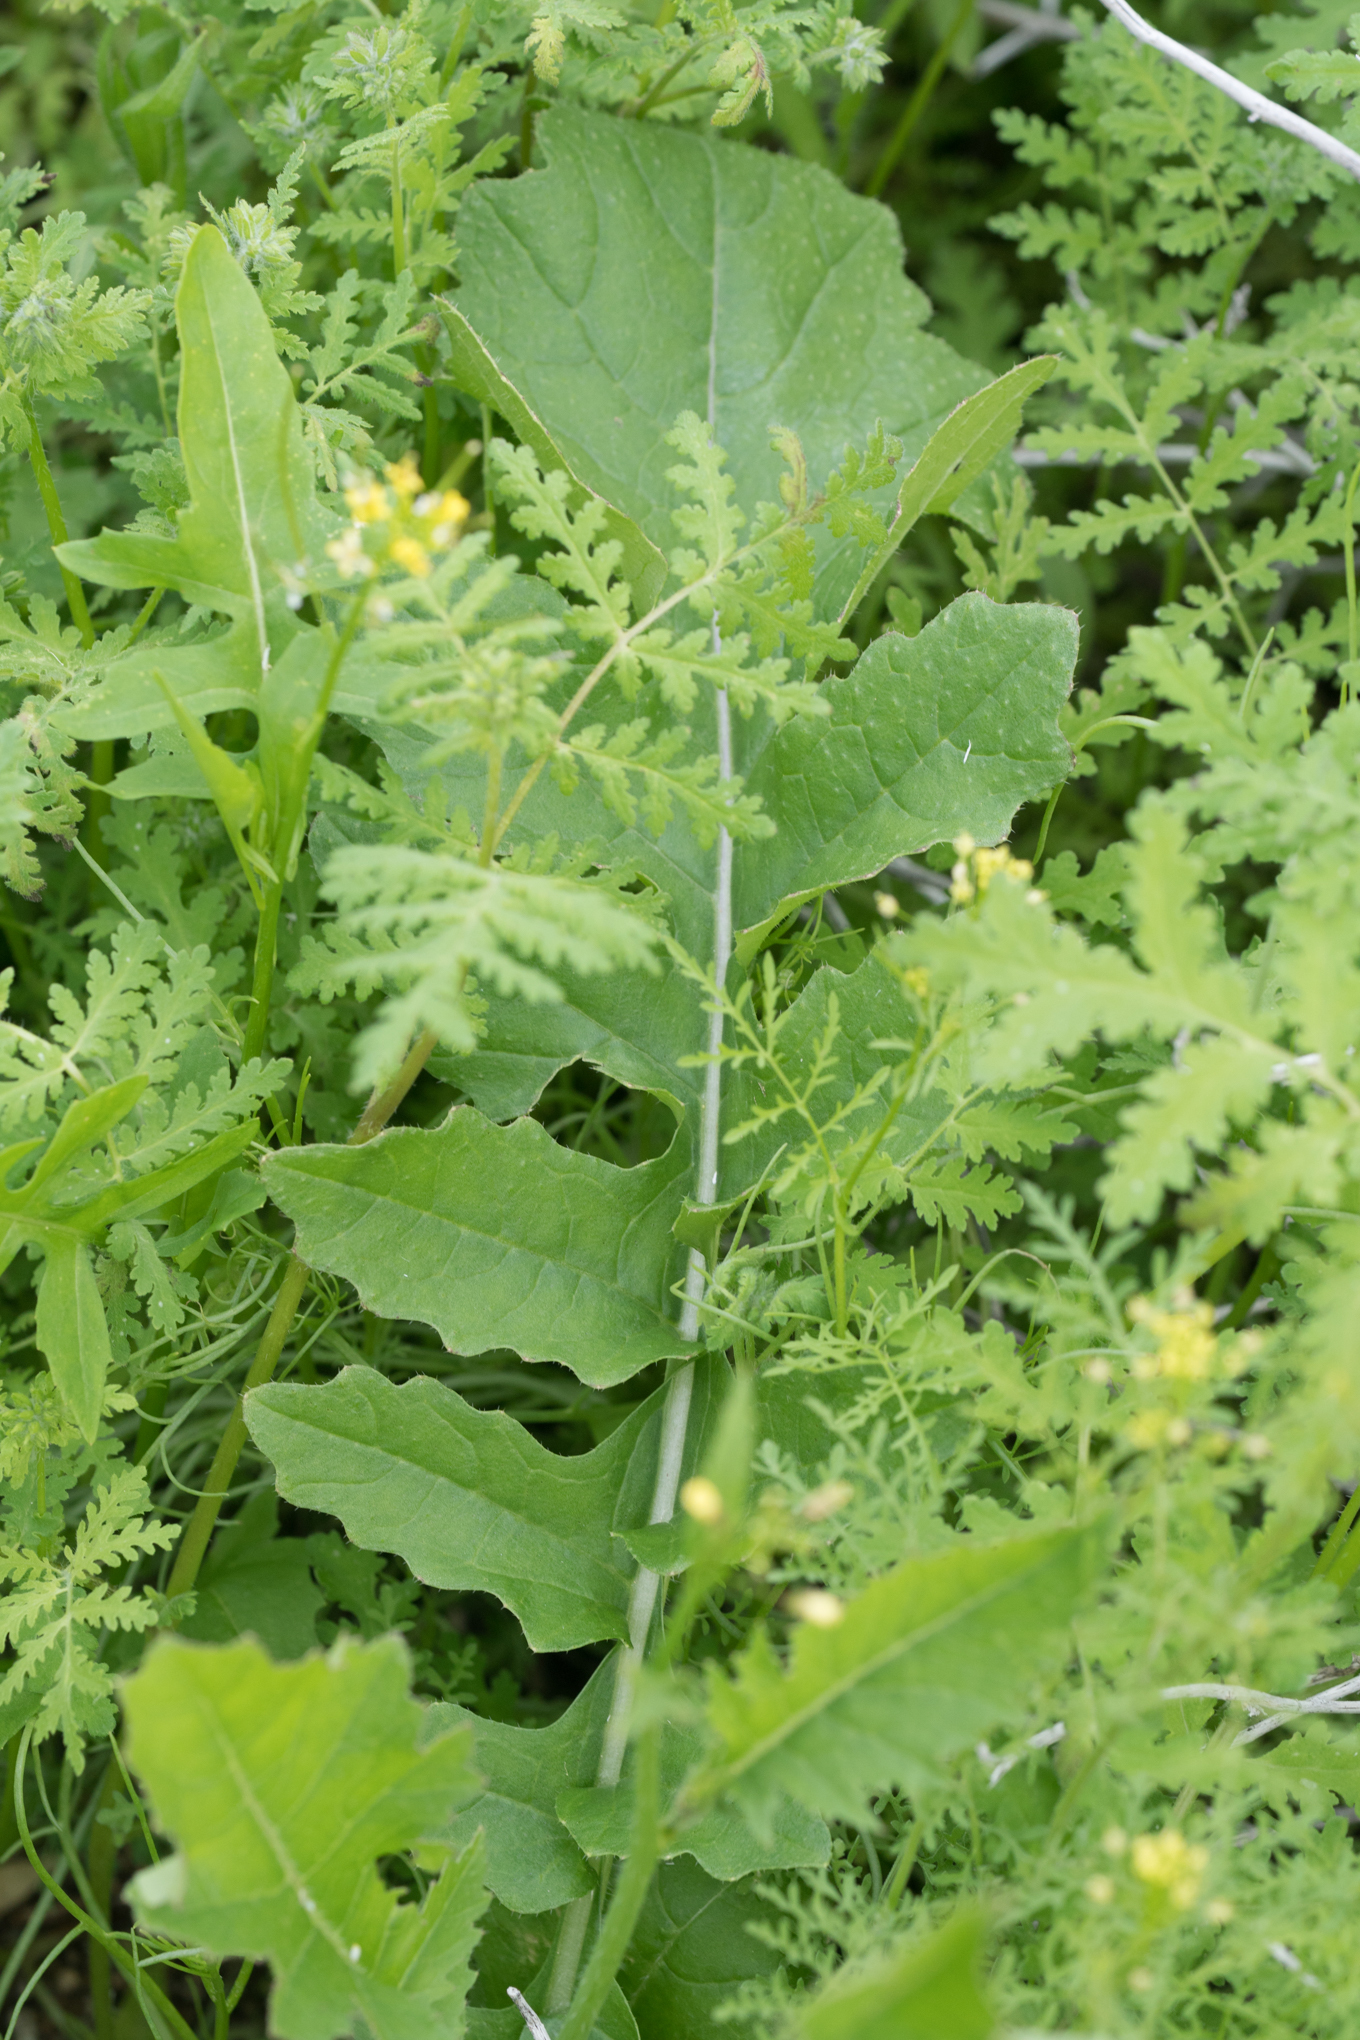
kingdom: Plantae
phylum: Tracheophyta
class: Magnoliopsida
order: Brassicales
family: Brassicaceae
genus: Brassica
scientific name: Brassica tournefortii
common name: Pale cabbage
